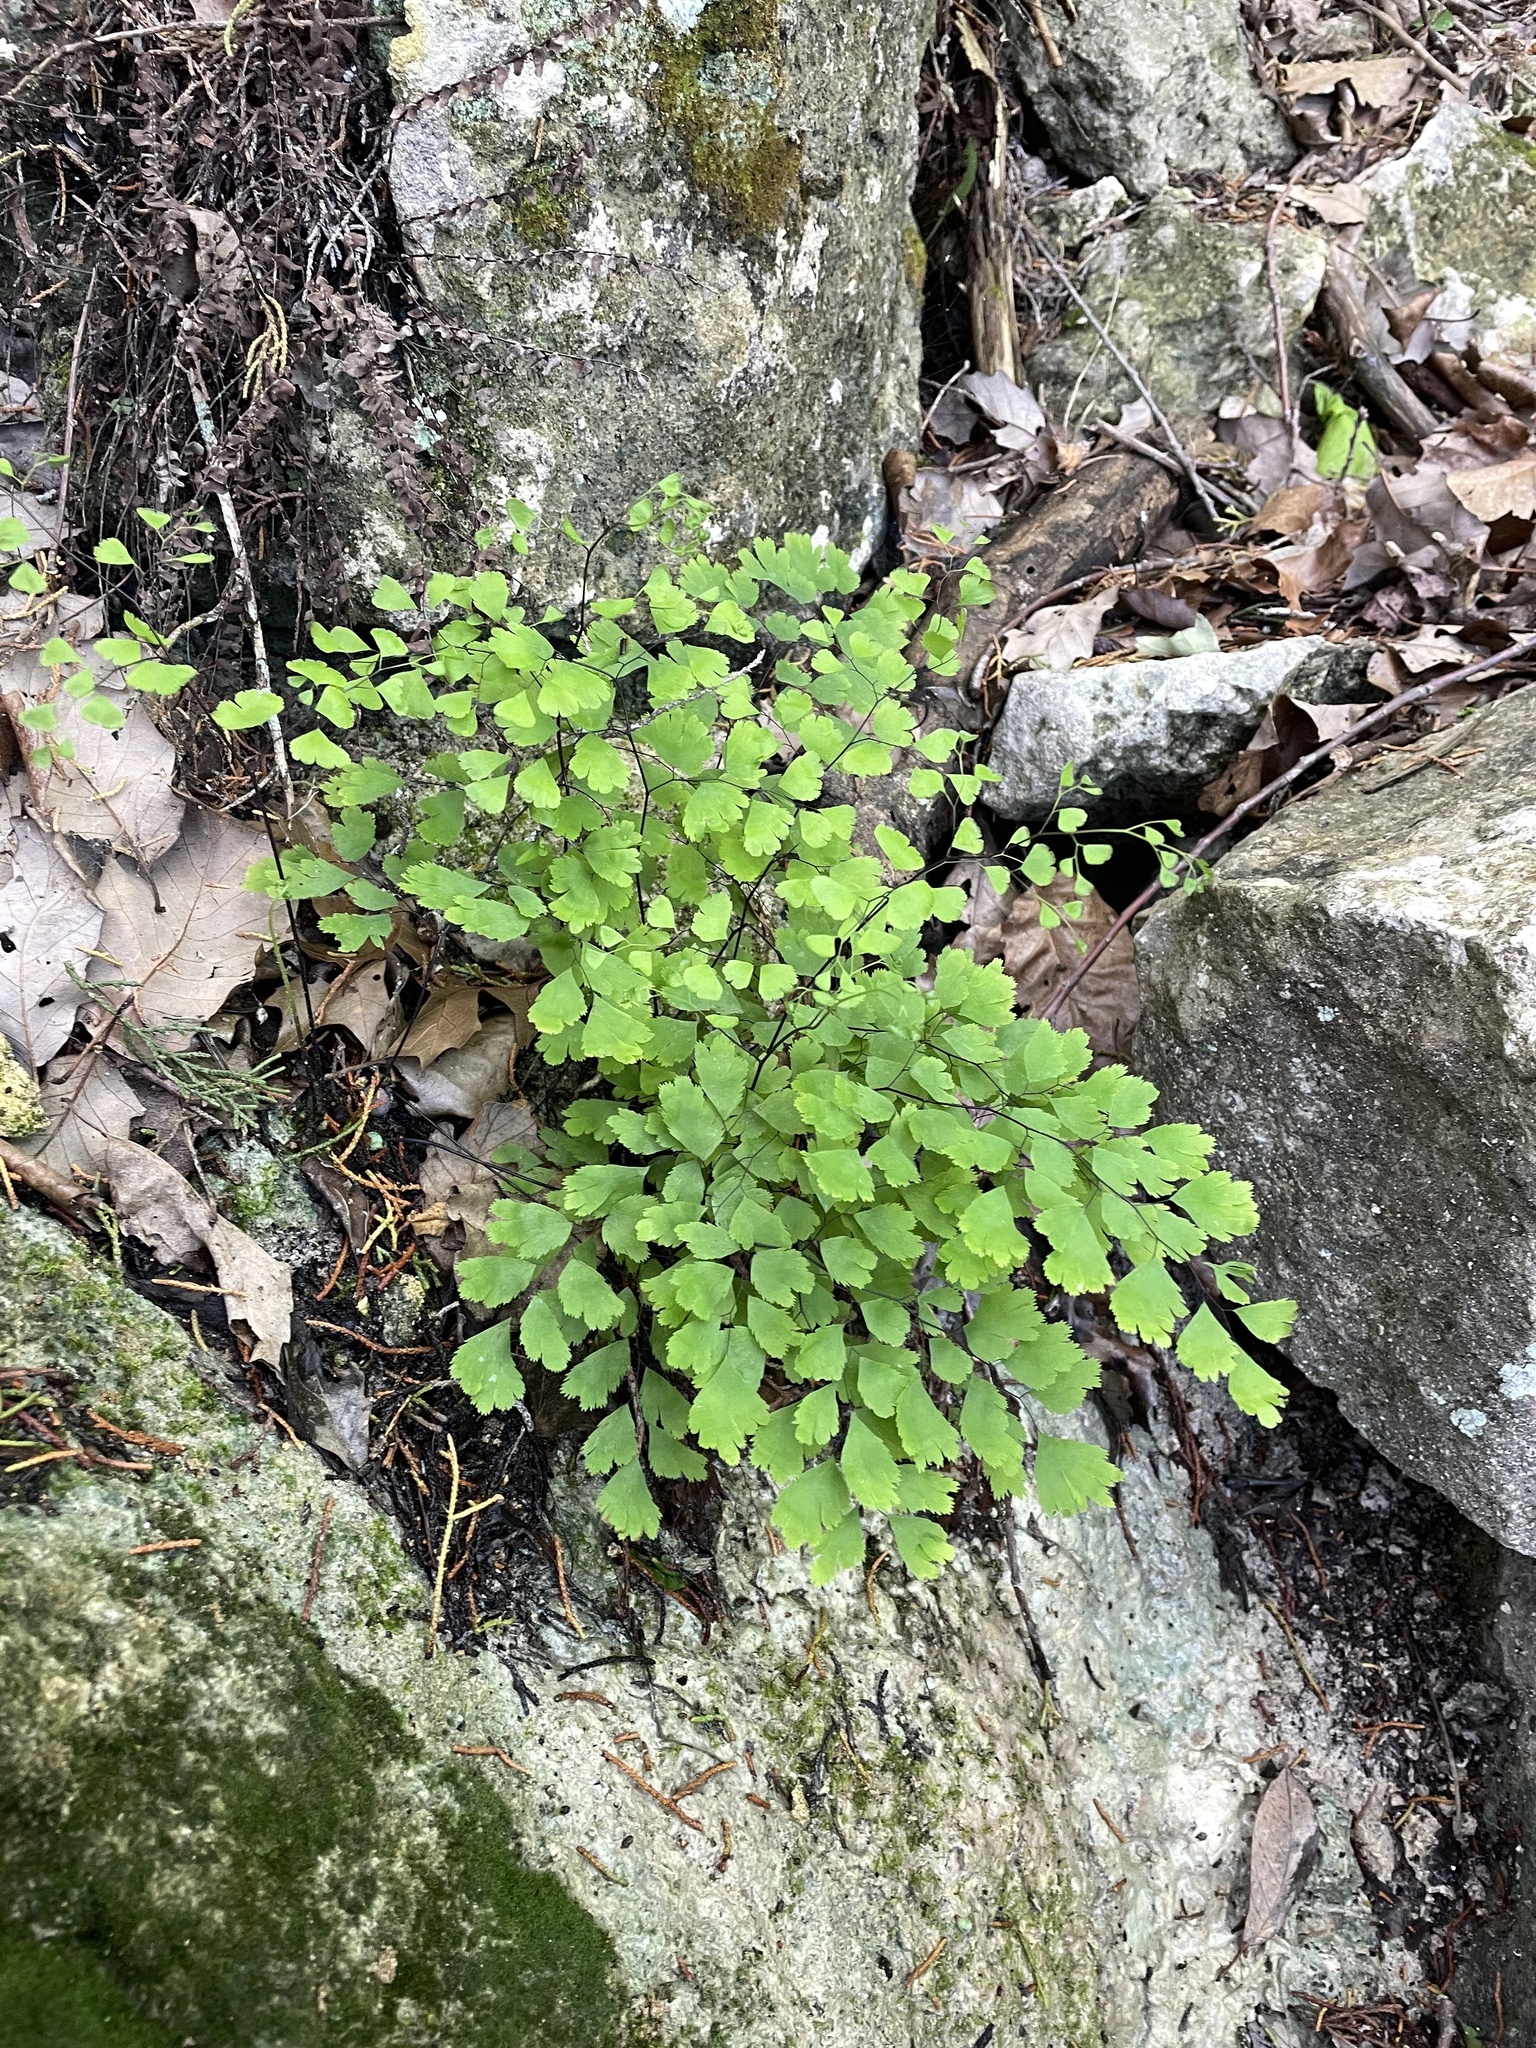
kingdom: Plantae
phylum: Tracheophyta
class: Polypodiopsida
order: Polypodiales
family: Pteridaceae
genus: Adiantum
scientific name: Adiantum capillus-veneris
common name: Maidenhair fern
